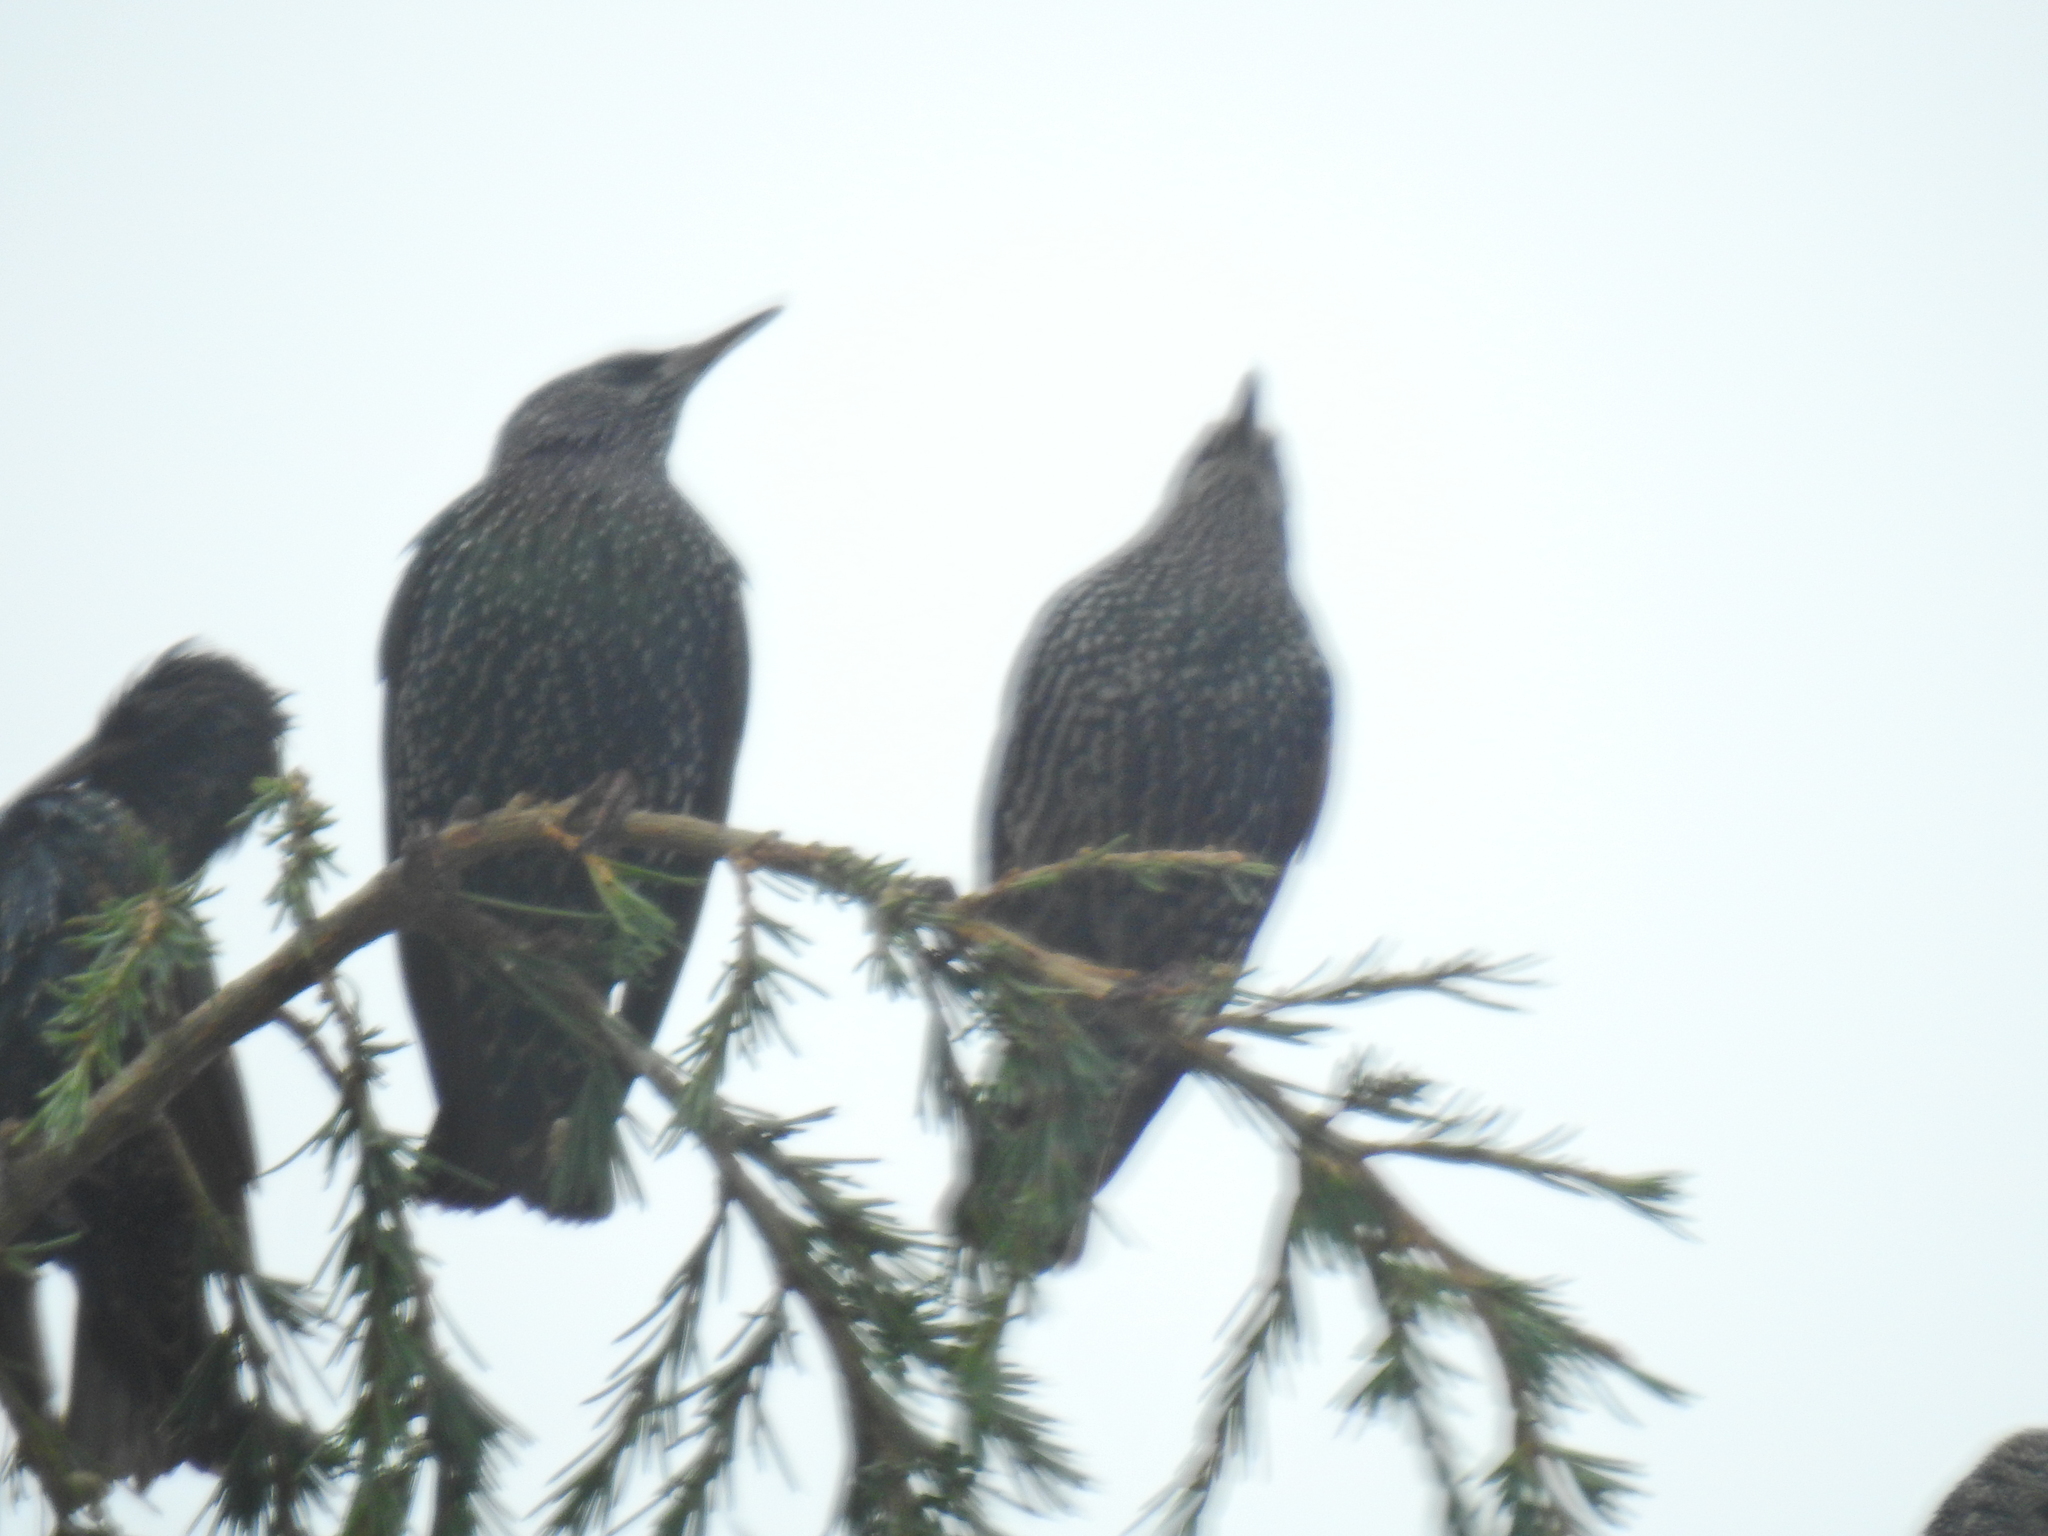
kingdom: Animalia
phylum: Chordata
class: Aves
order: Passeriformes
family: Sturnidae
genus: Sturnus
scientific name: Sturnus vulgaris
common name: Common starling
